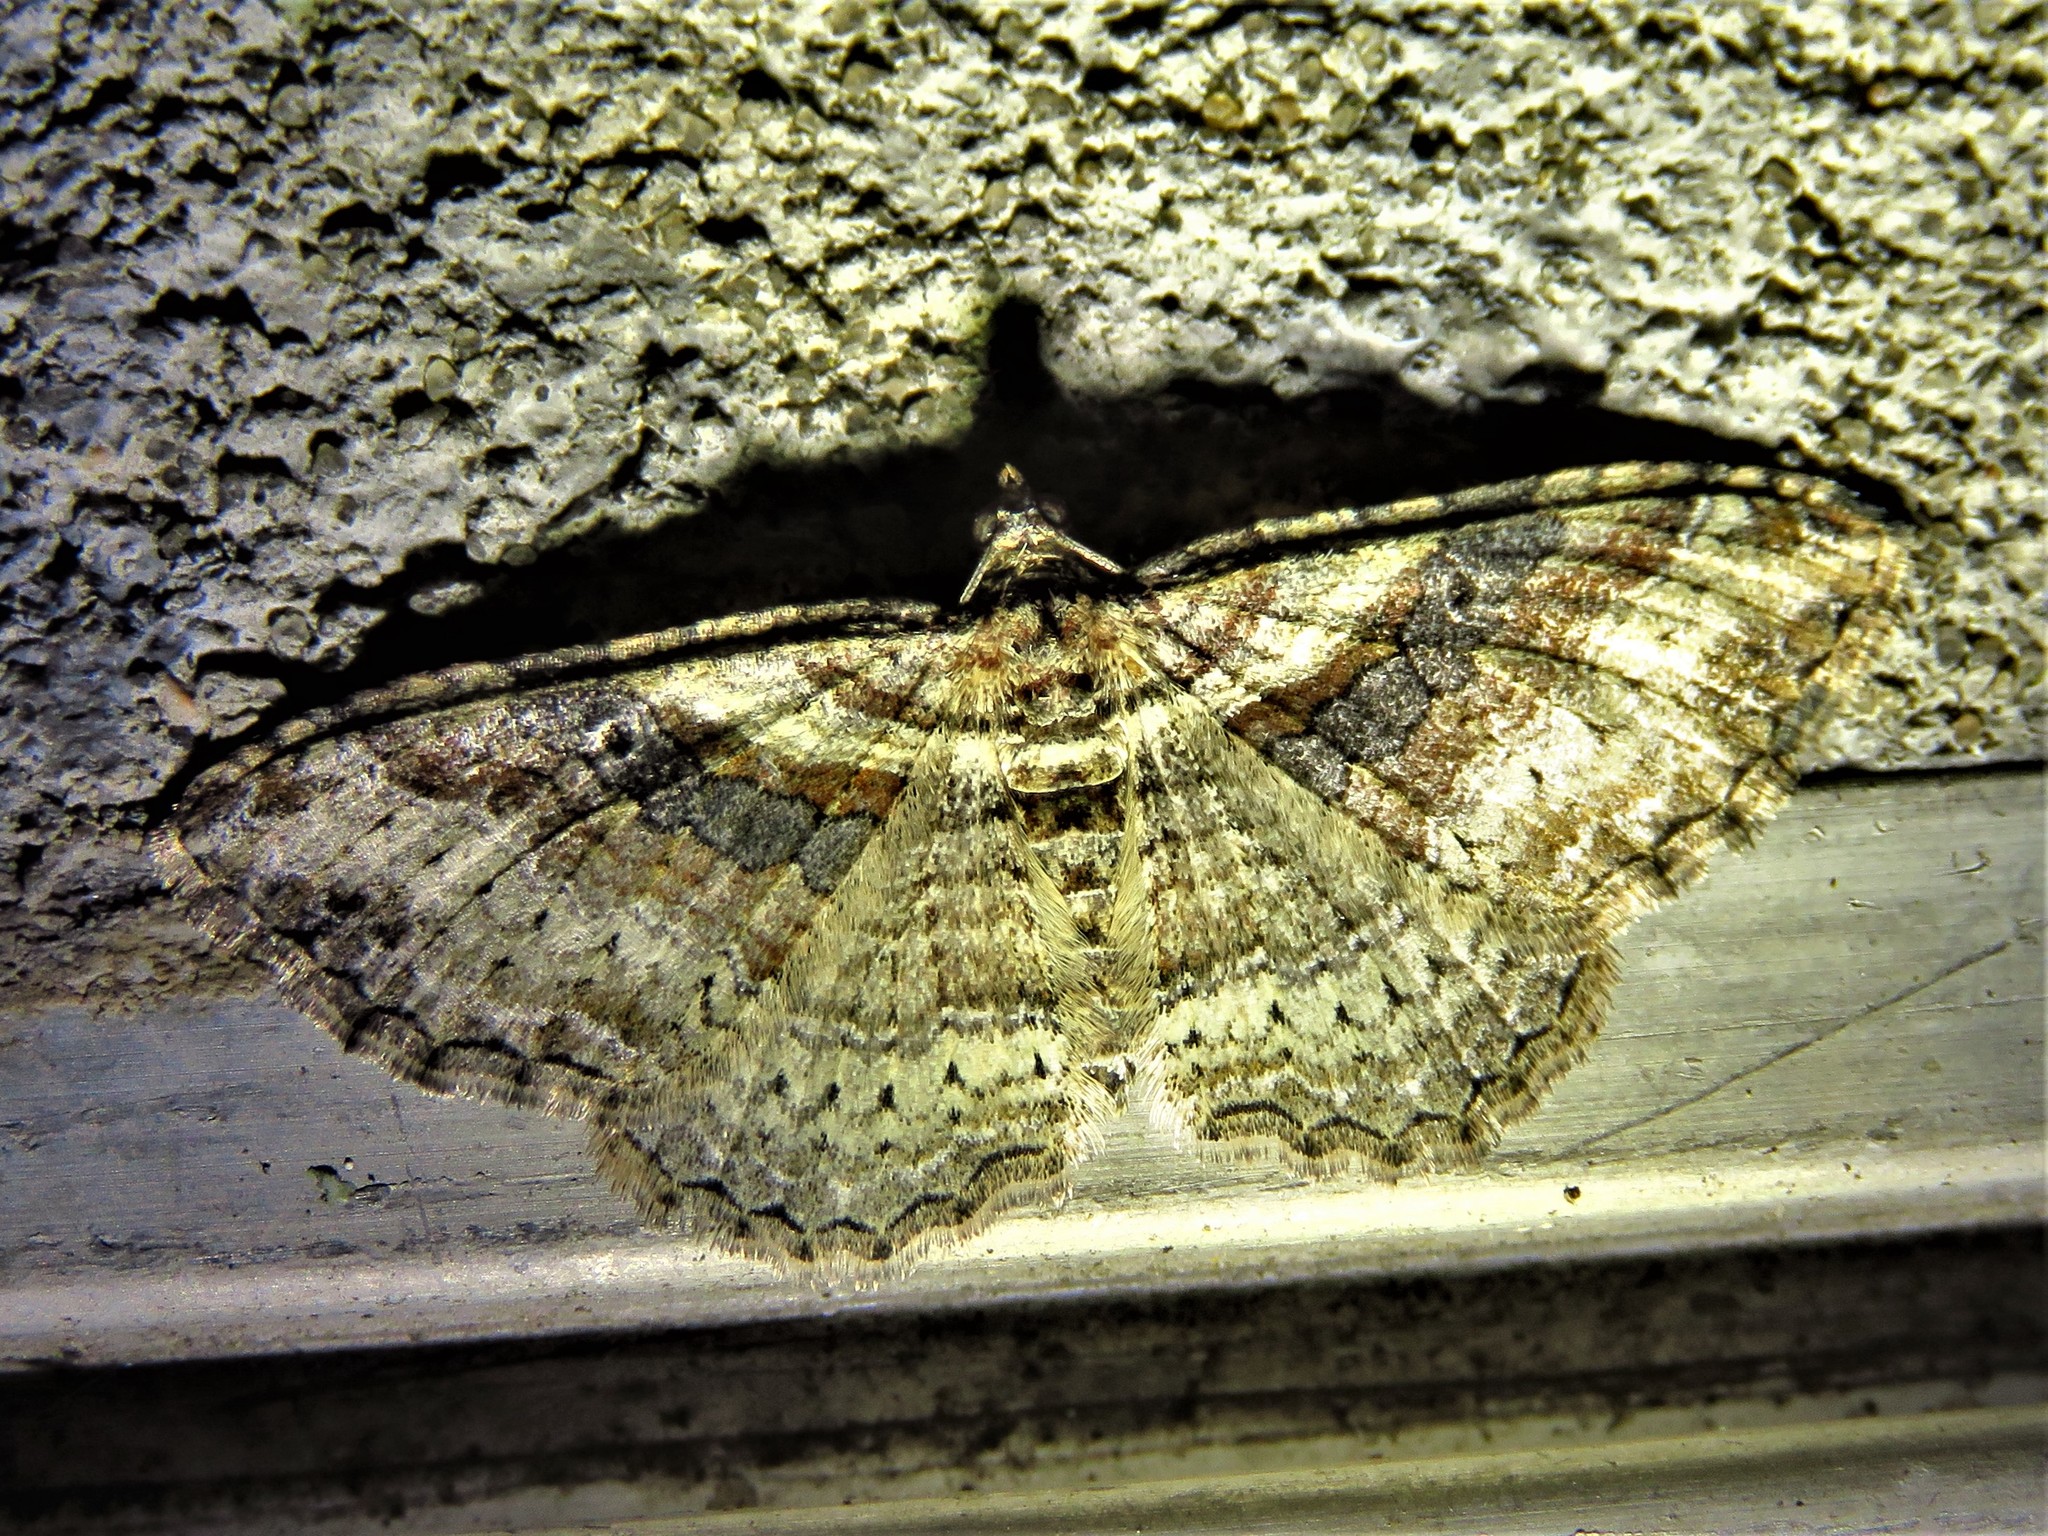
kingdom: Animalia
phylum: Arthropoda
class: Insecta
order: Lepidoptera
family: Geometridae
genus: Costaconvexa
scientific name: Costaconvexa centrostrigaria
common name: Bent-line carpet
